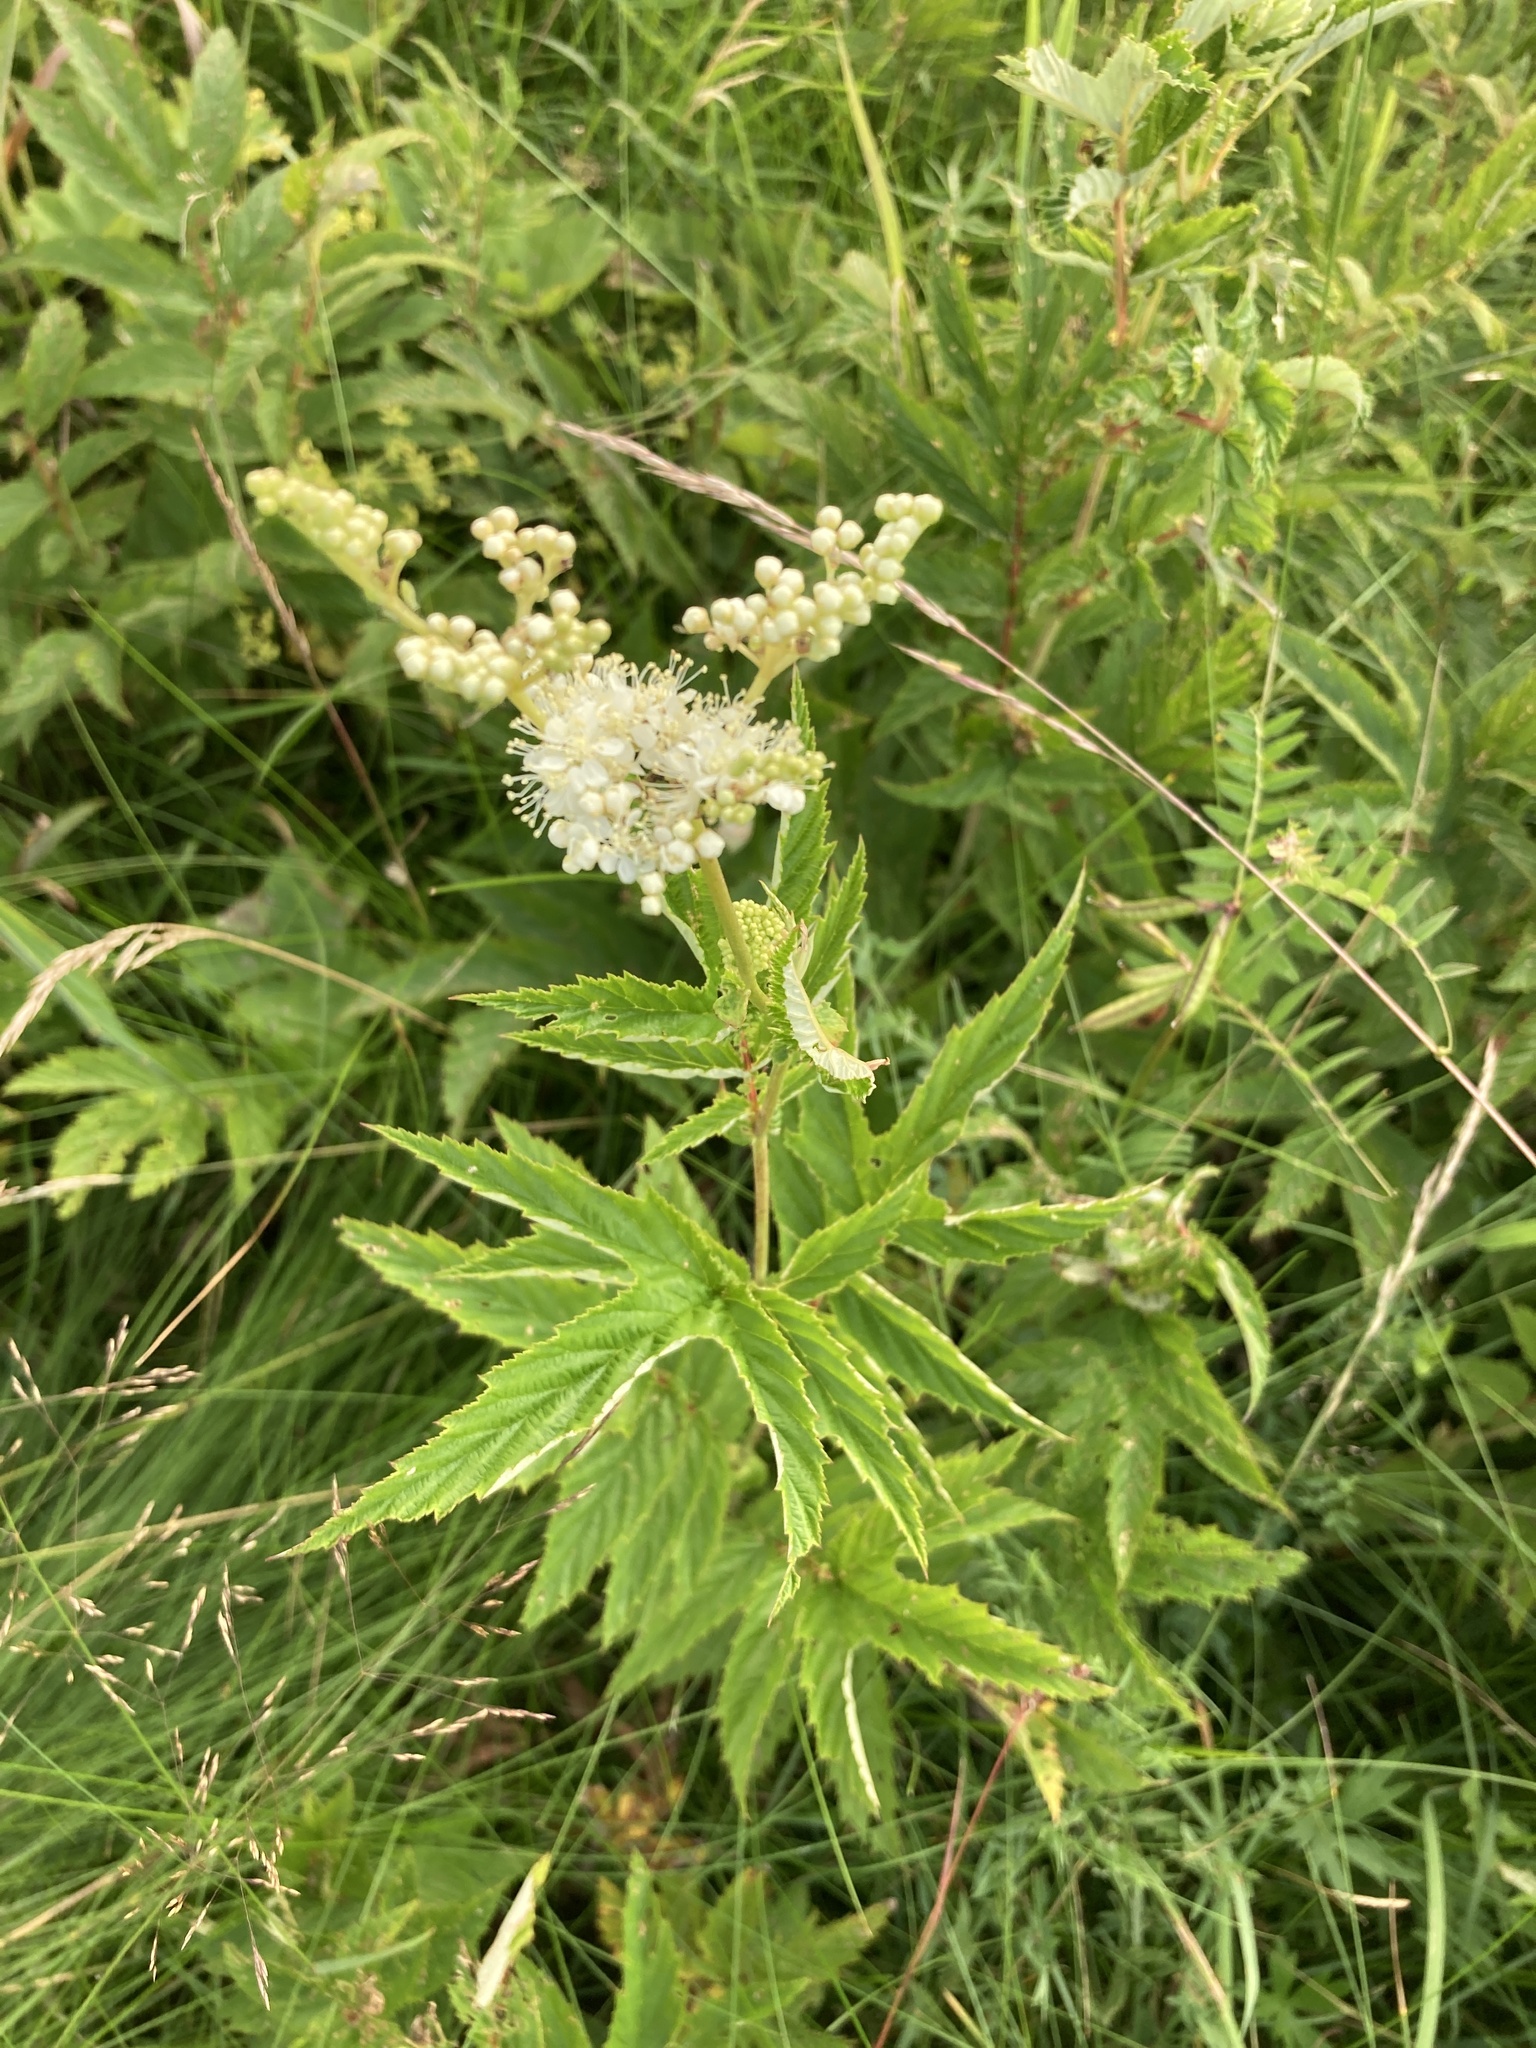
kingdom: Plantae
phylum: Tracheophyta
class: Magnoliopsida
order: Rosales
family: Rosaceae
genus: Filipendula
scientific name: Filipendula ulmaria
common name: Meadowsweet
